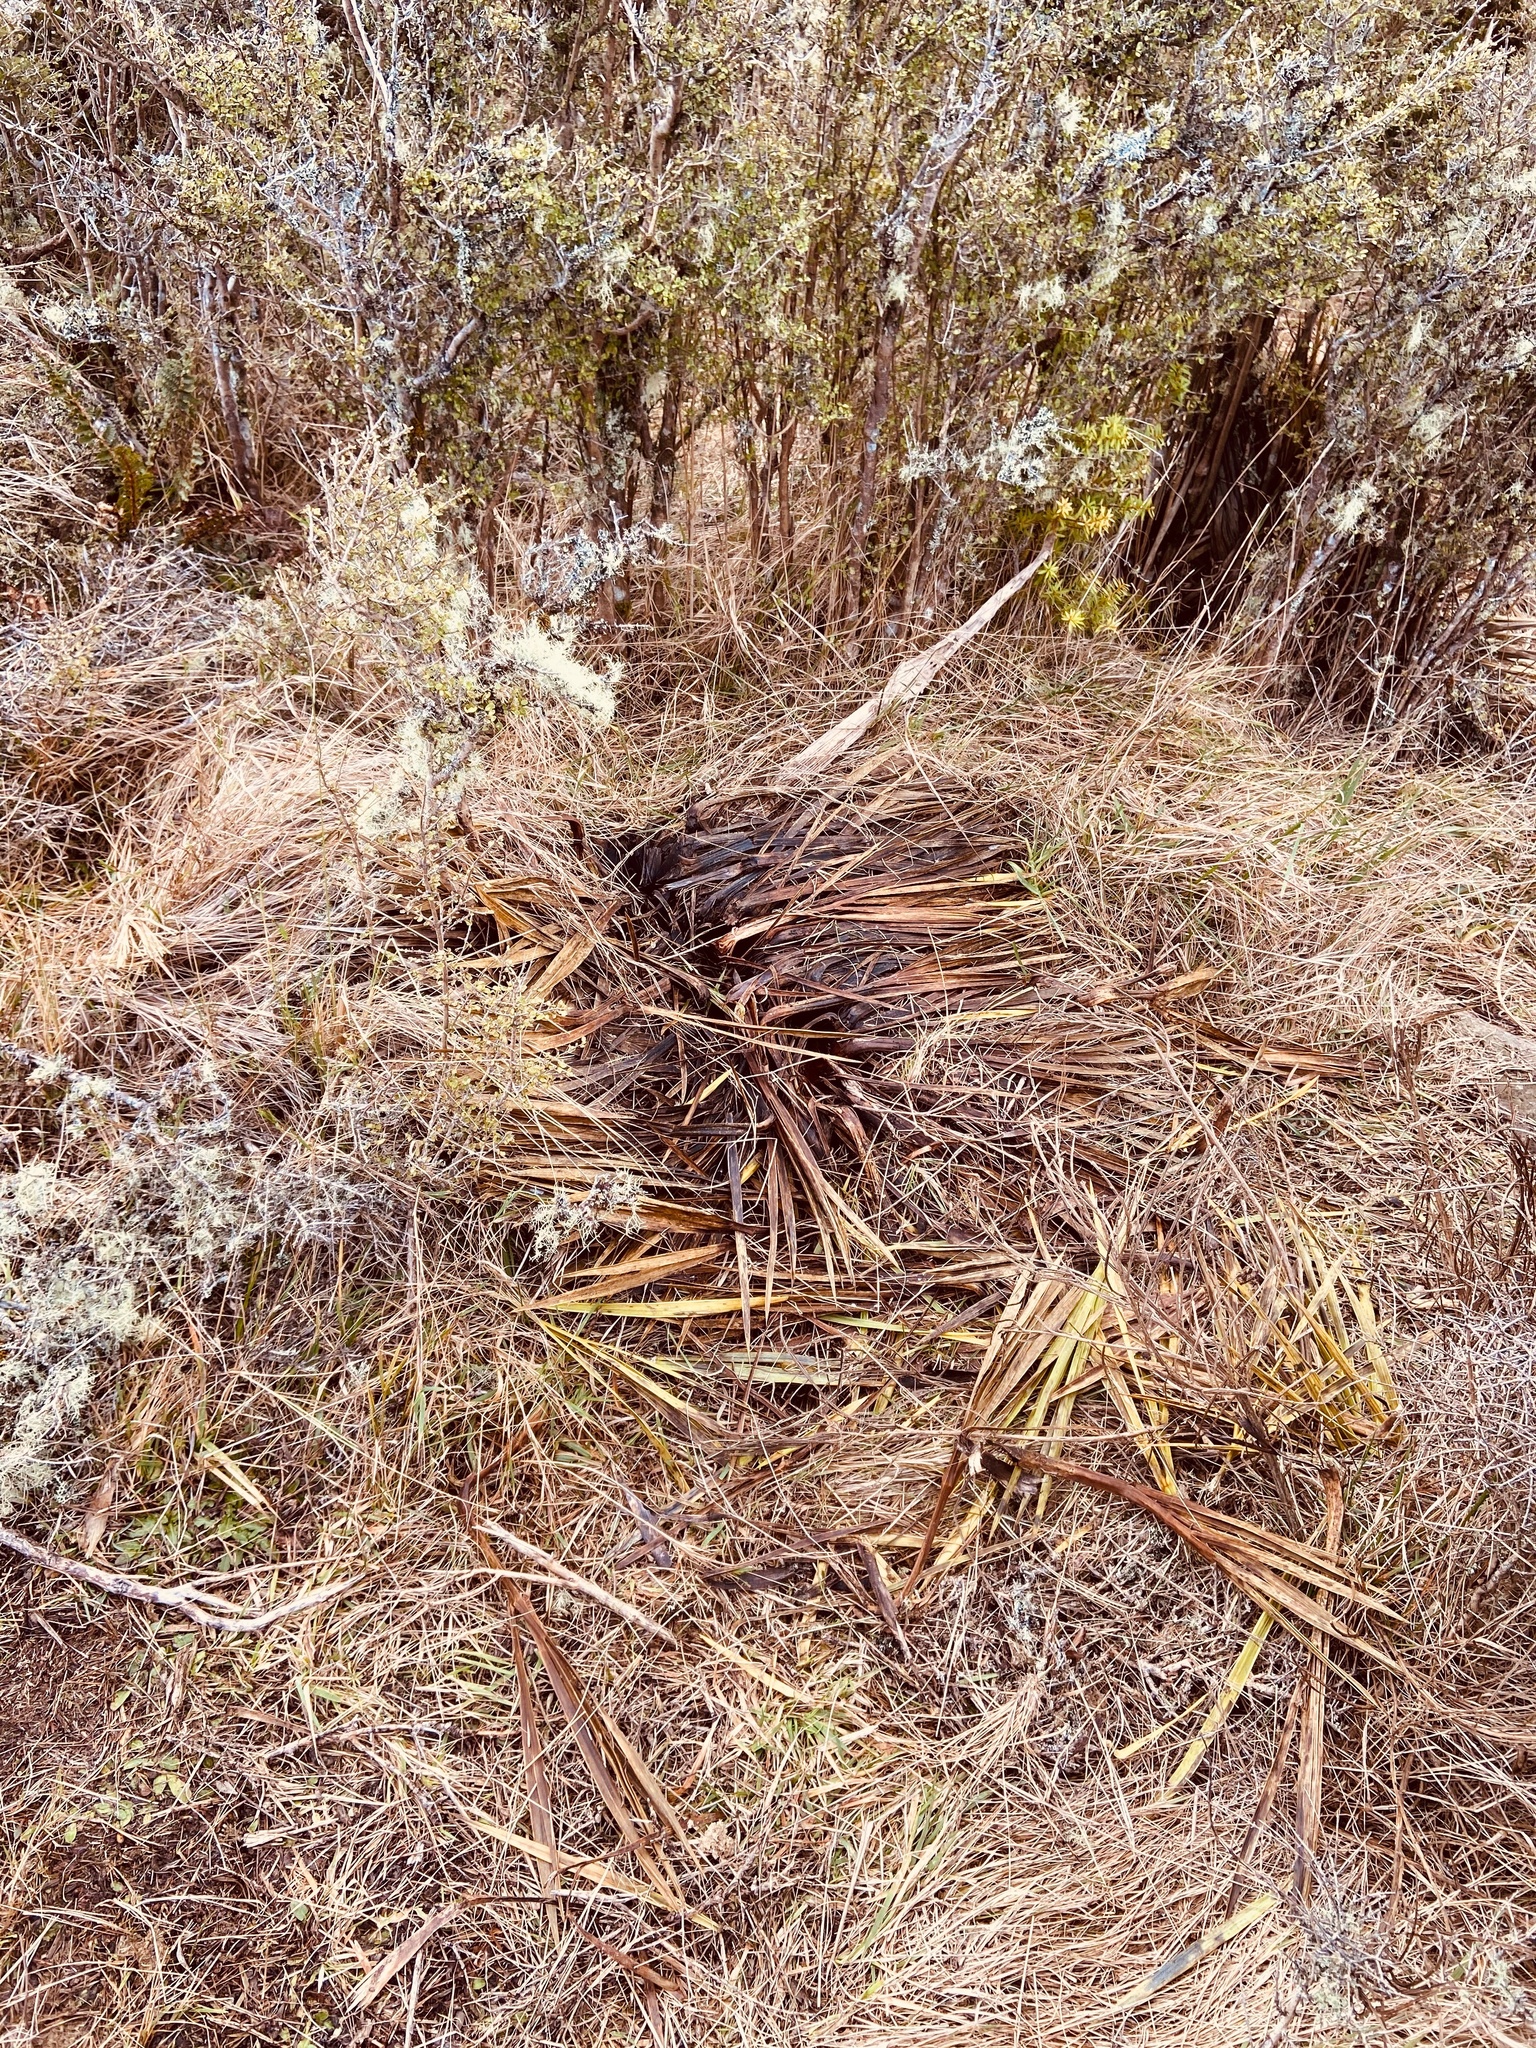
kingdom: Plantae
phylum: Tracheophyta
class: Magnoliopsida
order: Apiales
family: Apiaceae
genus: Aciphylla
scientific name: Aciphylla aurea
